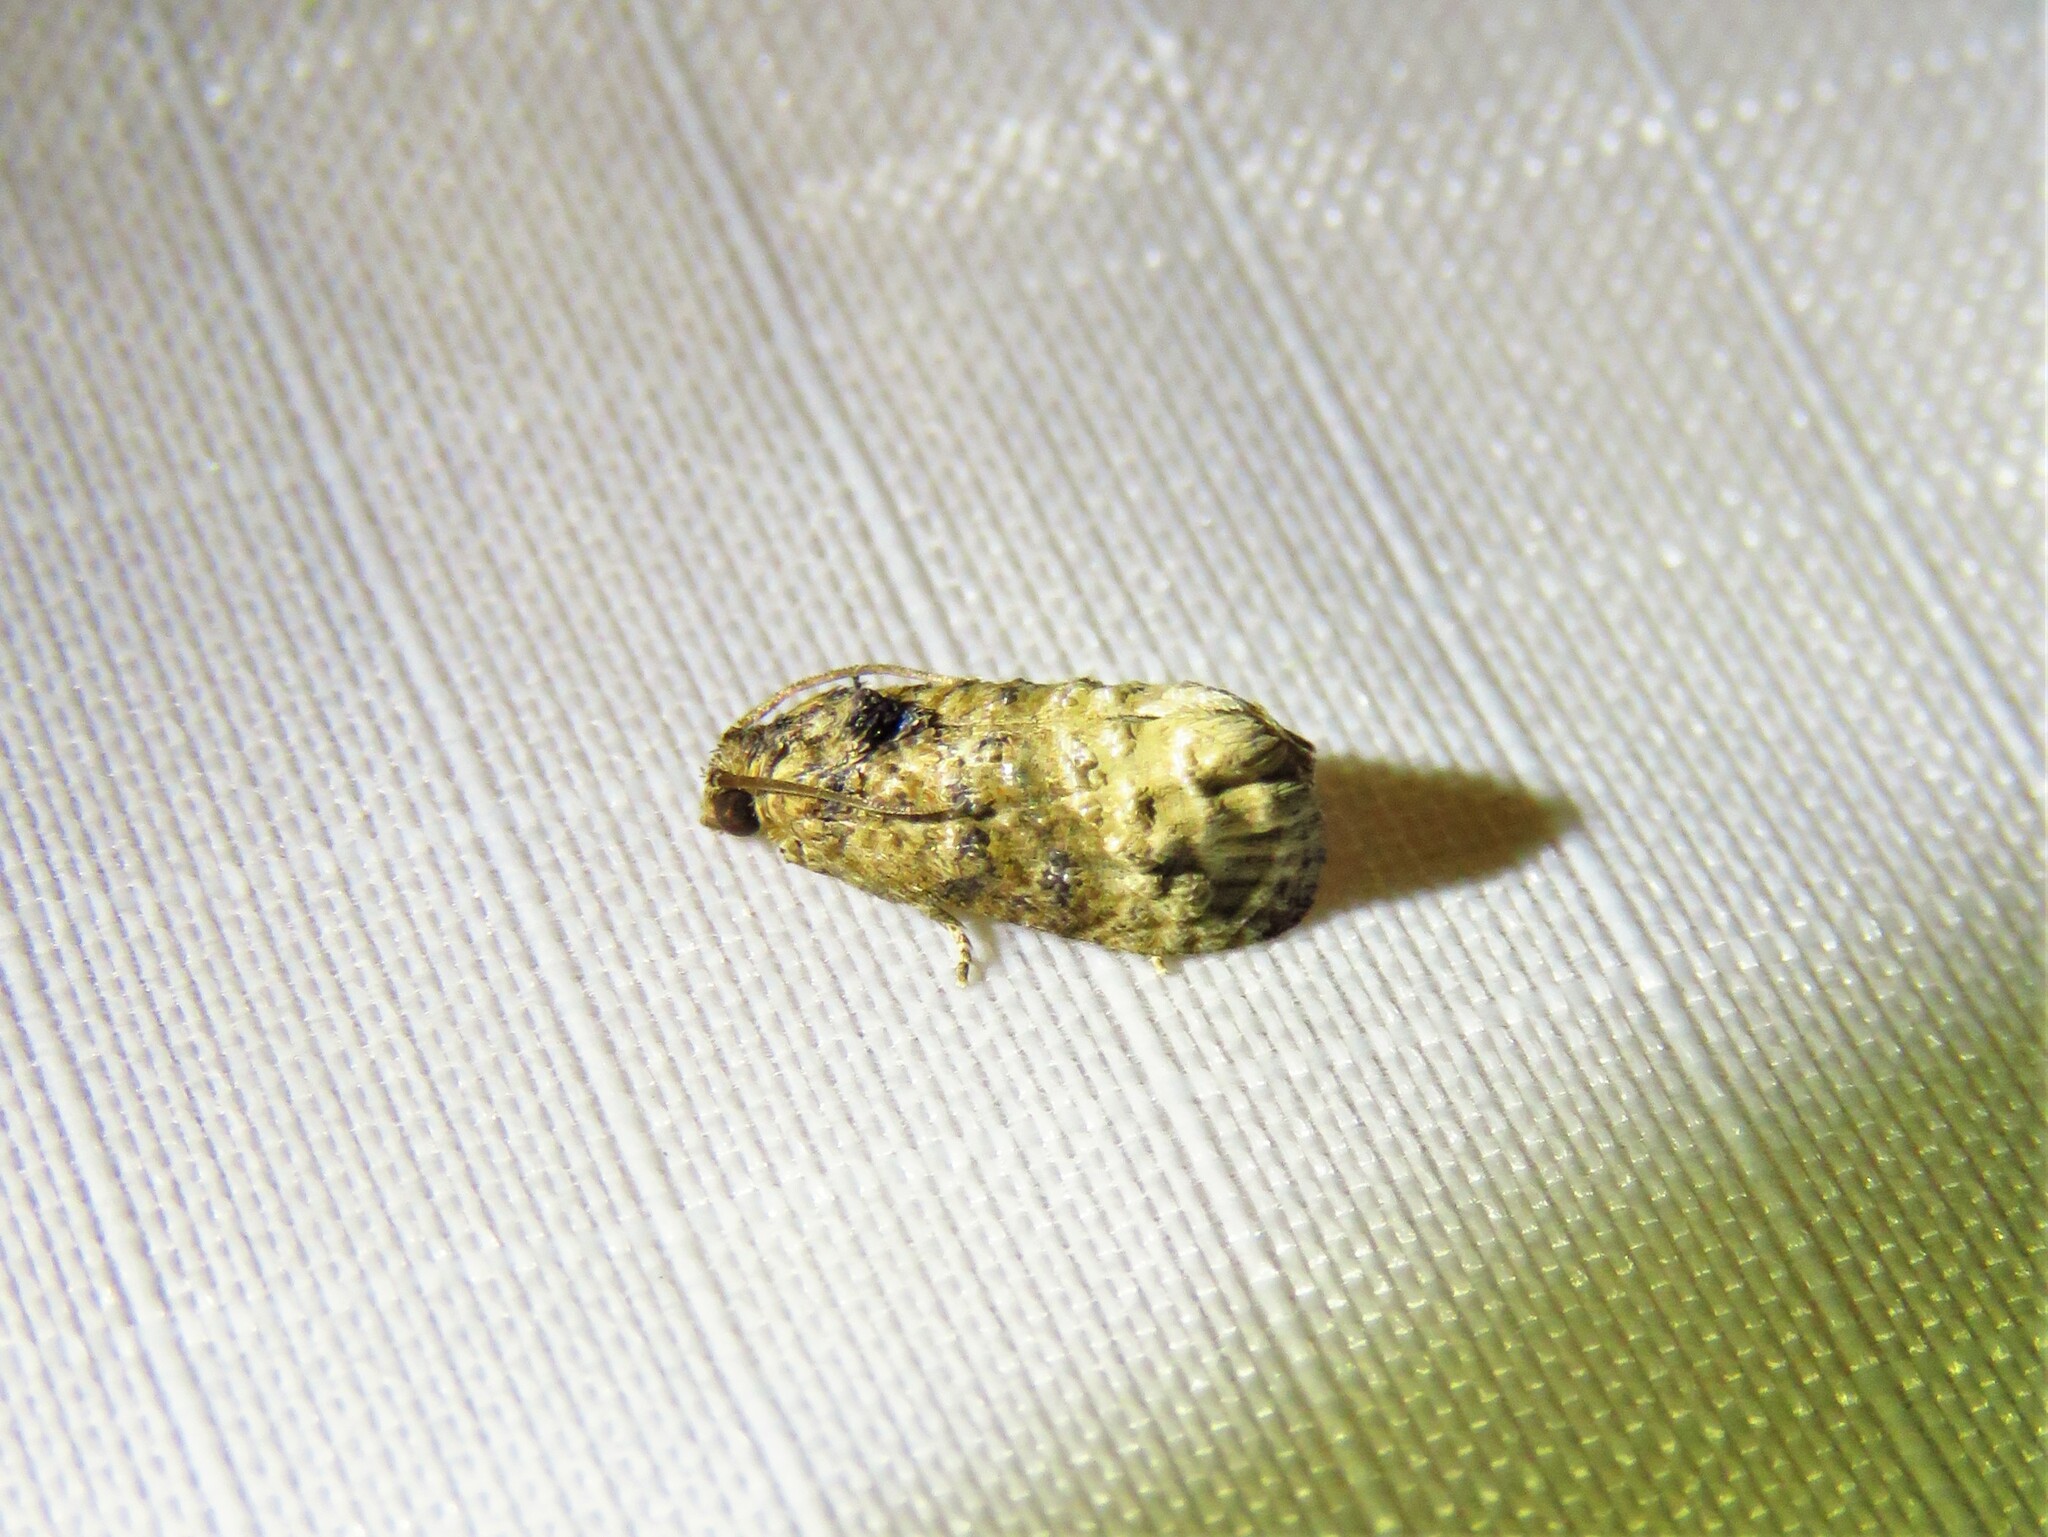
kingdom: Animalia
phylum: Arthropoda
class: Insecta
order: Lepidoptera
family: Tortricidae
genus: Ecdytolopha
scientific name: Ecdytolopha mana
